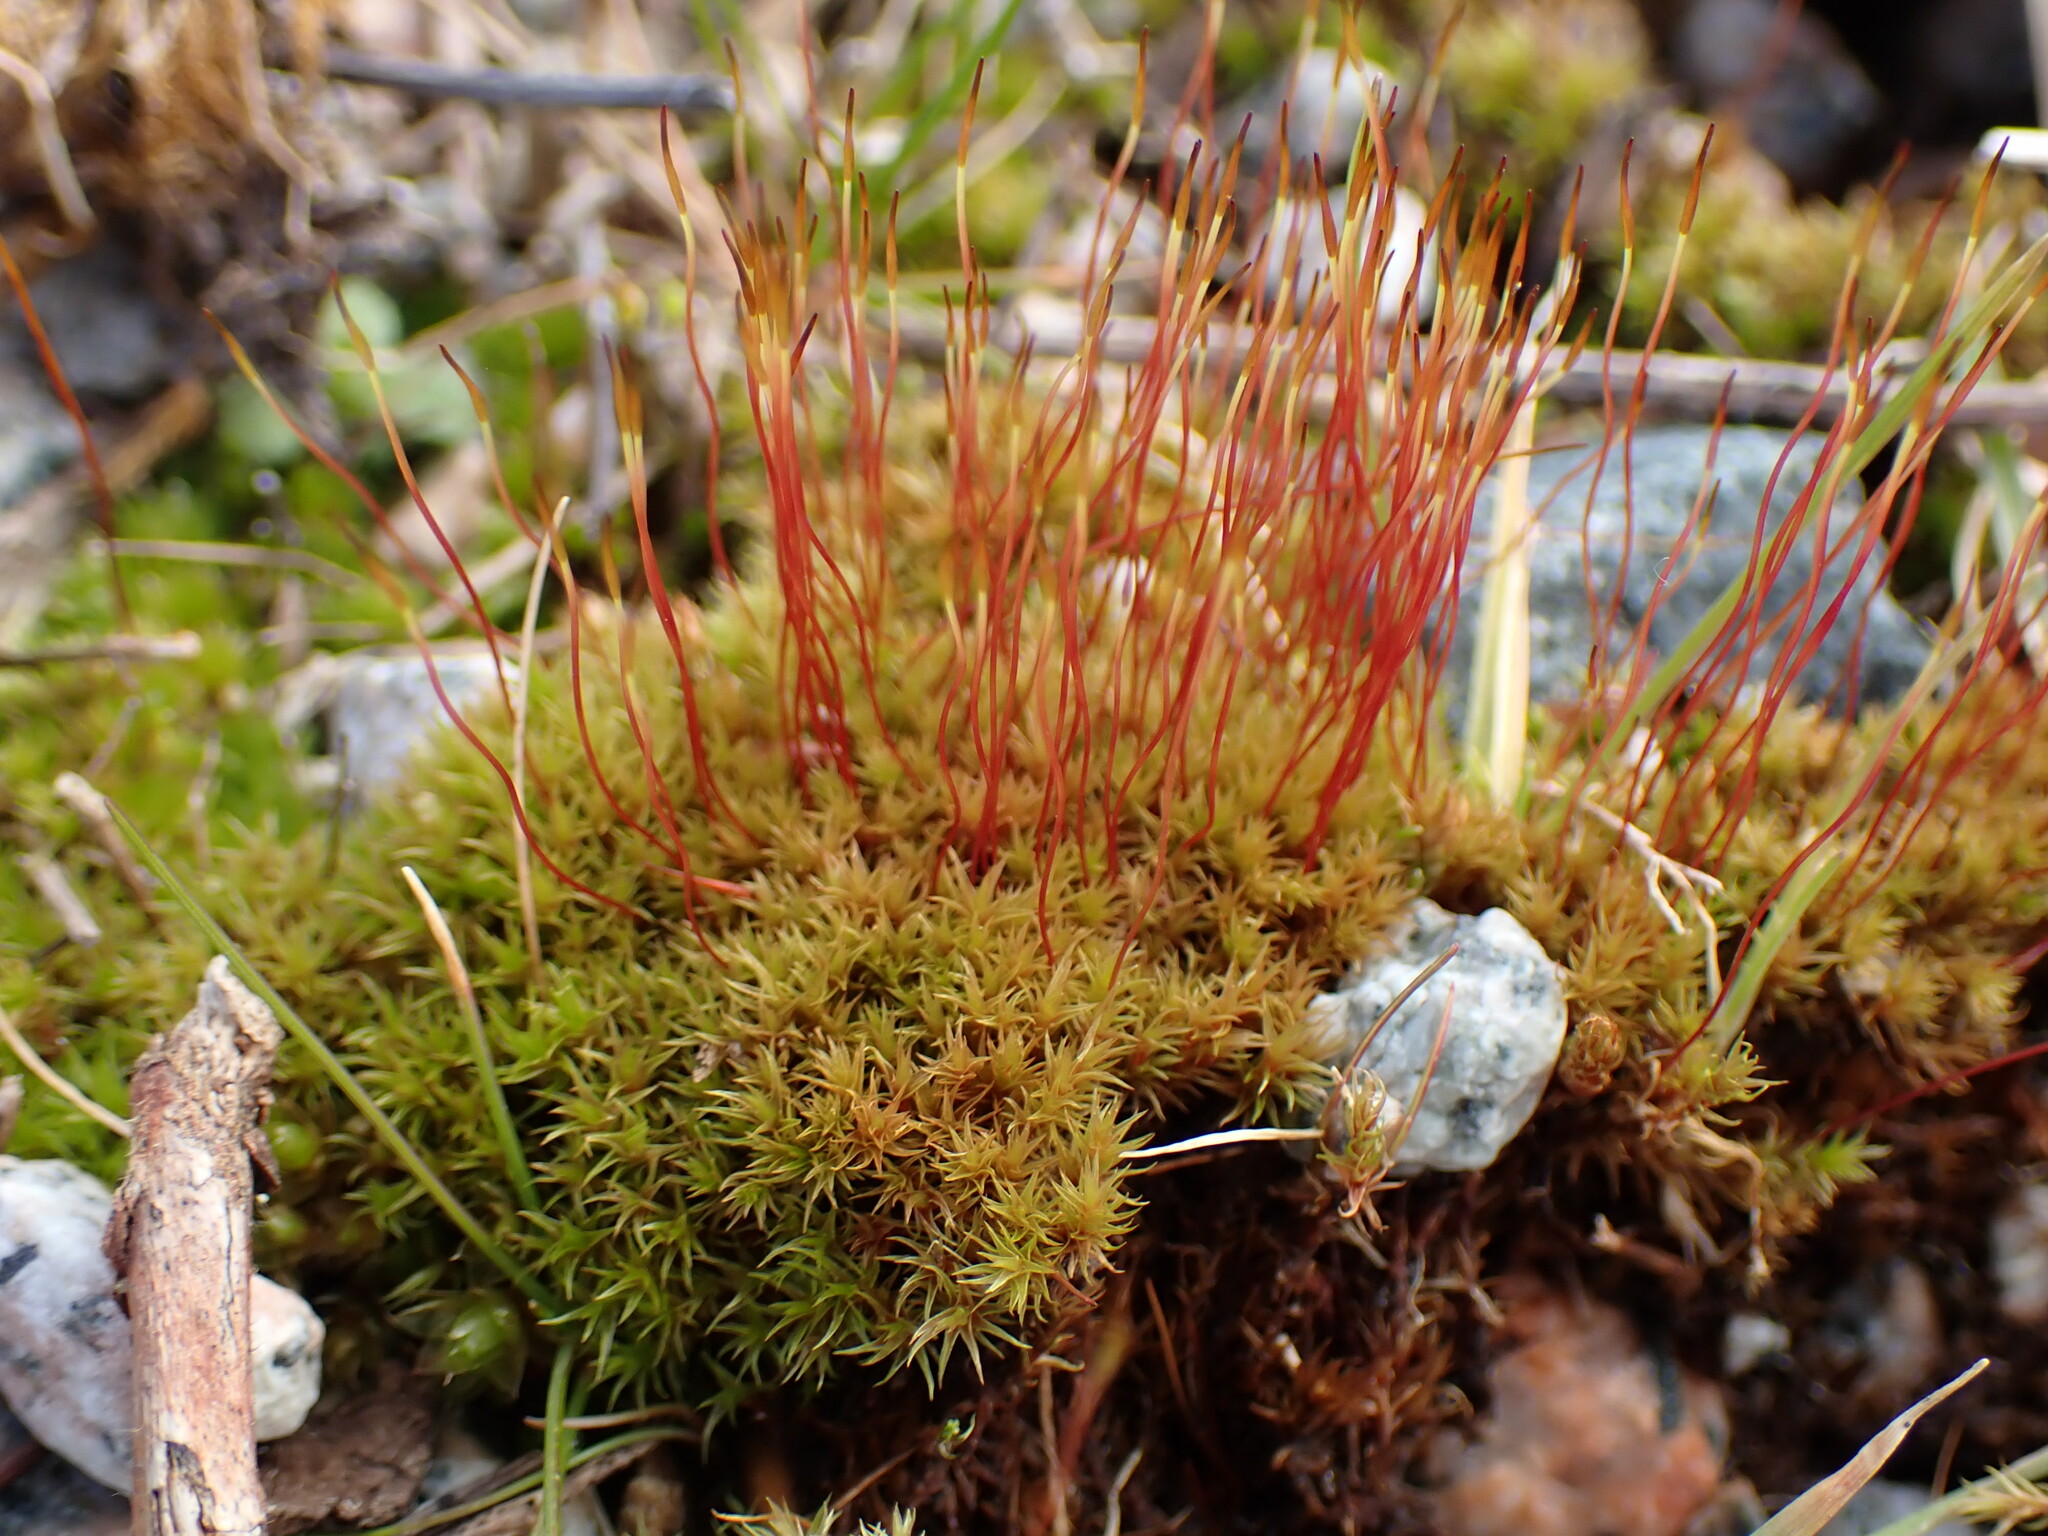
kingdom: Plantae
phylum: Bryophyta
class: Bryopsida
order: Dicranales
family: Ditrichaceae
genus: Ceratodon
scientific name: Ceratodon purpureus
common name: Redshank
